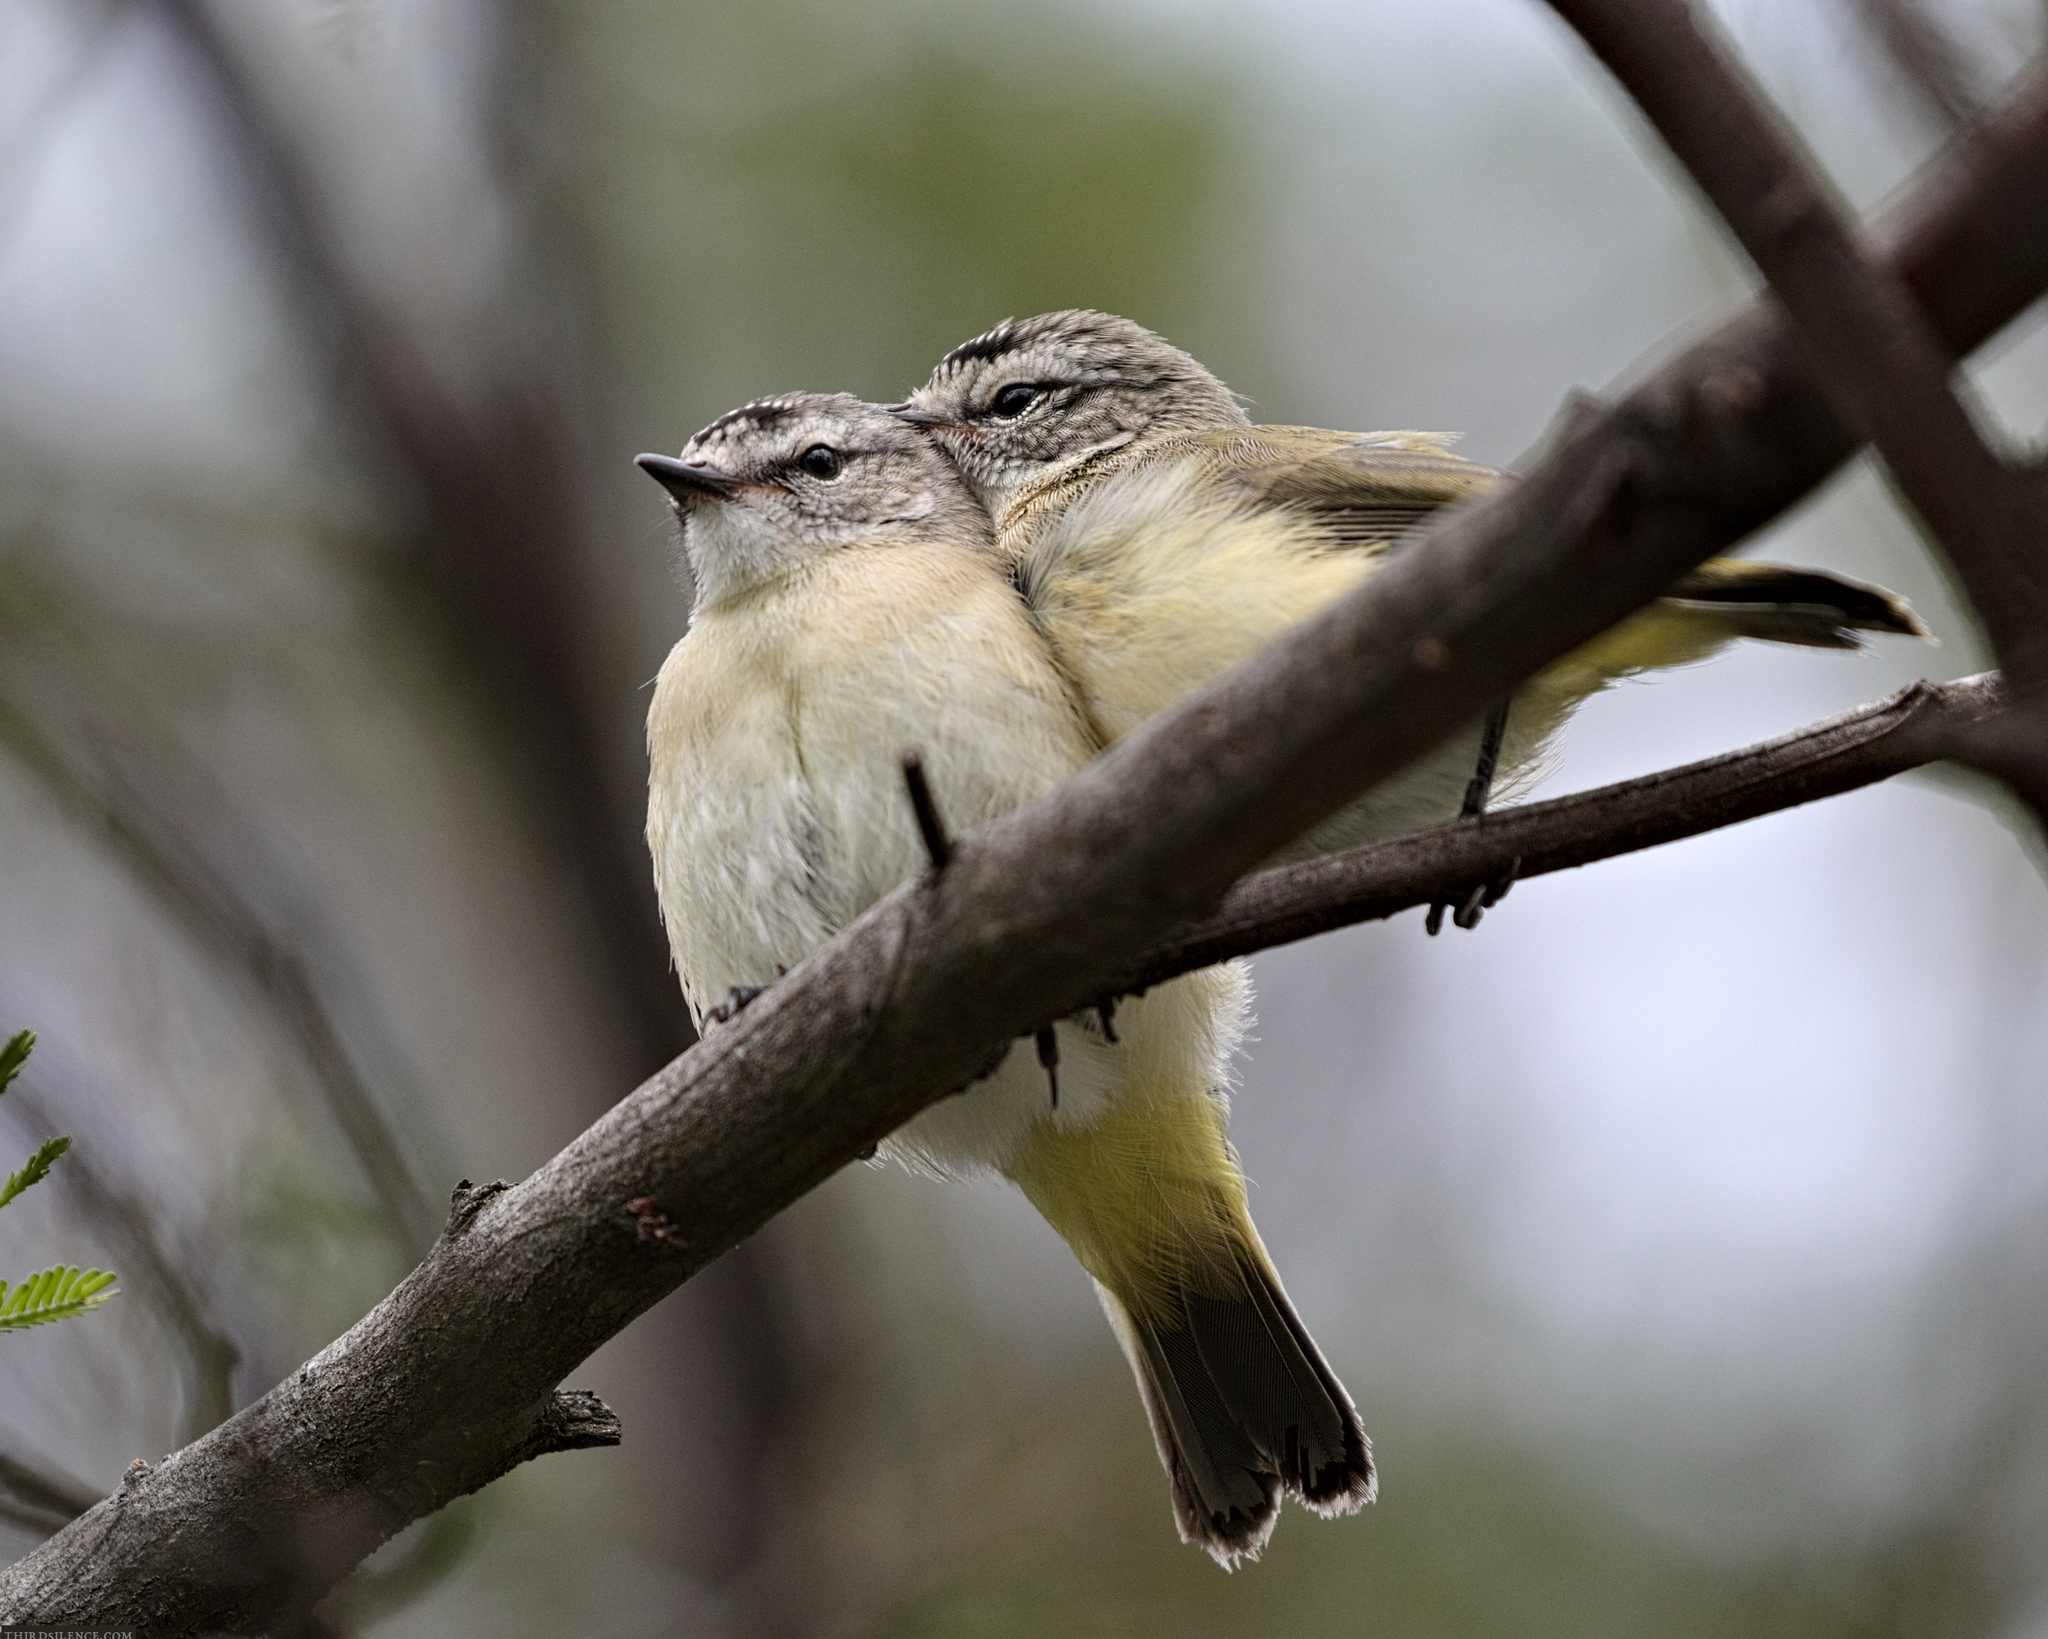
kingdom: Animalia
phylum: Chordata
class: Aves
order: Passeriformes
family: Acanthizidae
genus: Acanthiza
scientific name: Acanthiza chrysorrhoa
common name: Yellow-rumped thornbill
